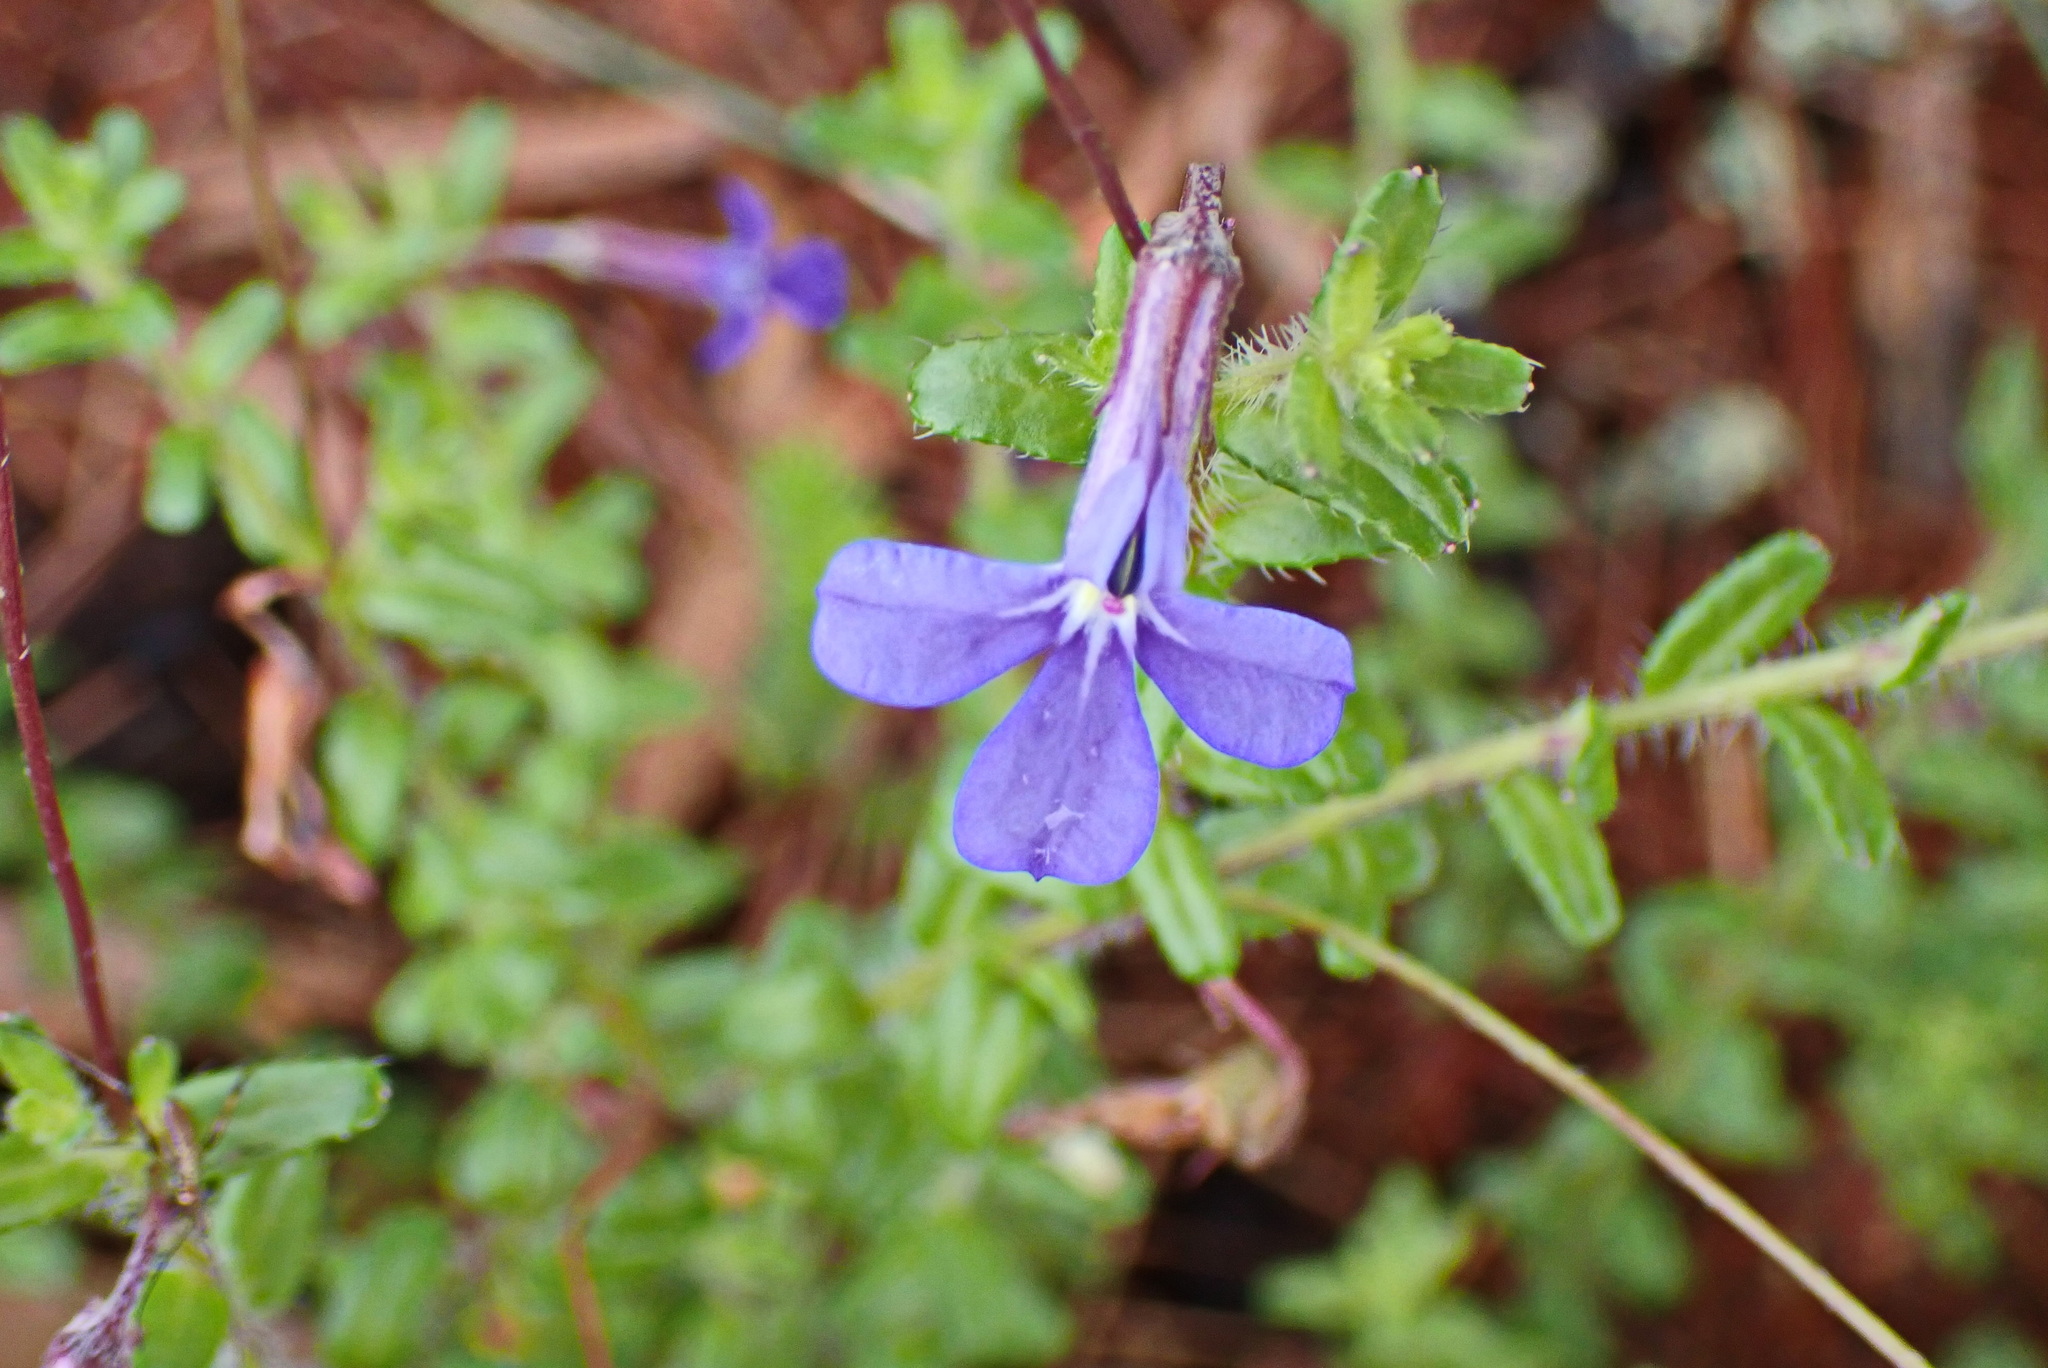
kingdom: Plantae
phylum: Tracheophyta
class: Magnoliopsida
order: Asterales
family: Campanulaceae
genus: Lobelia
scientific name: Lobelia neglecta
